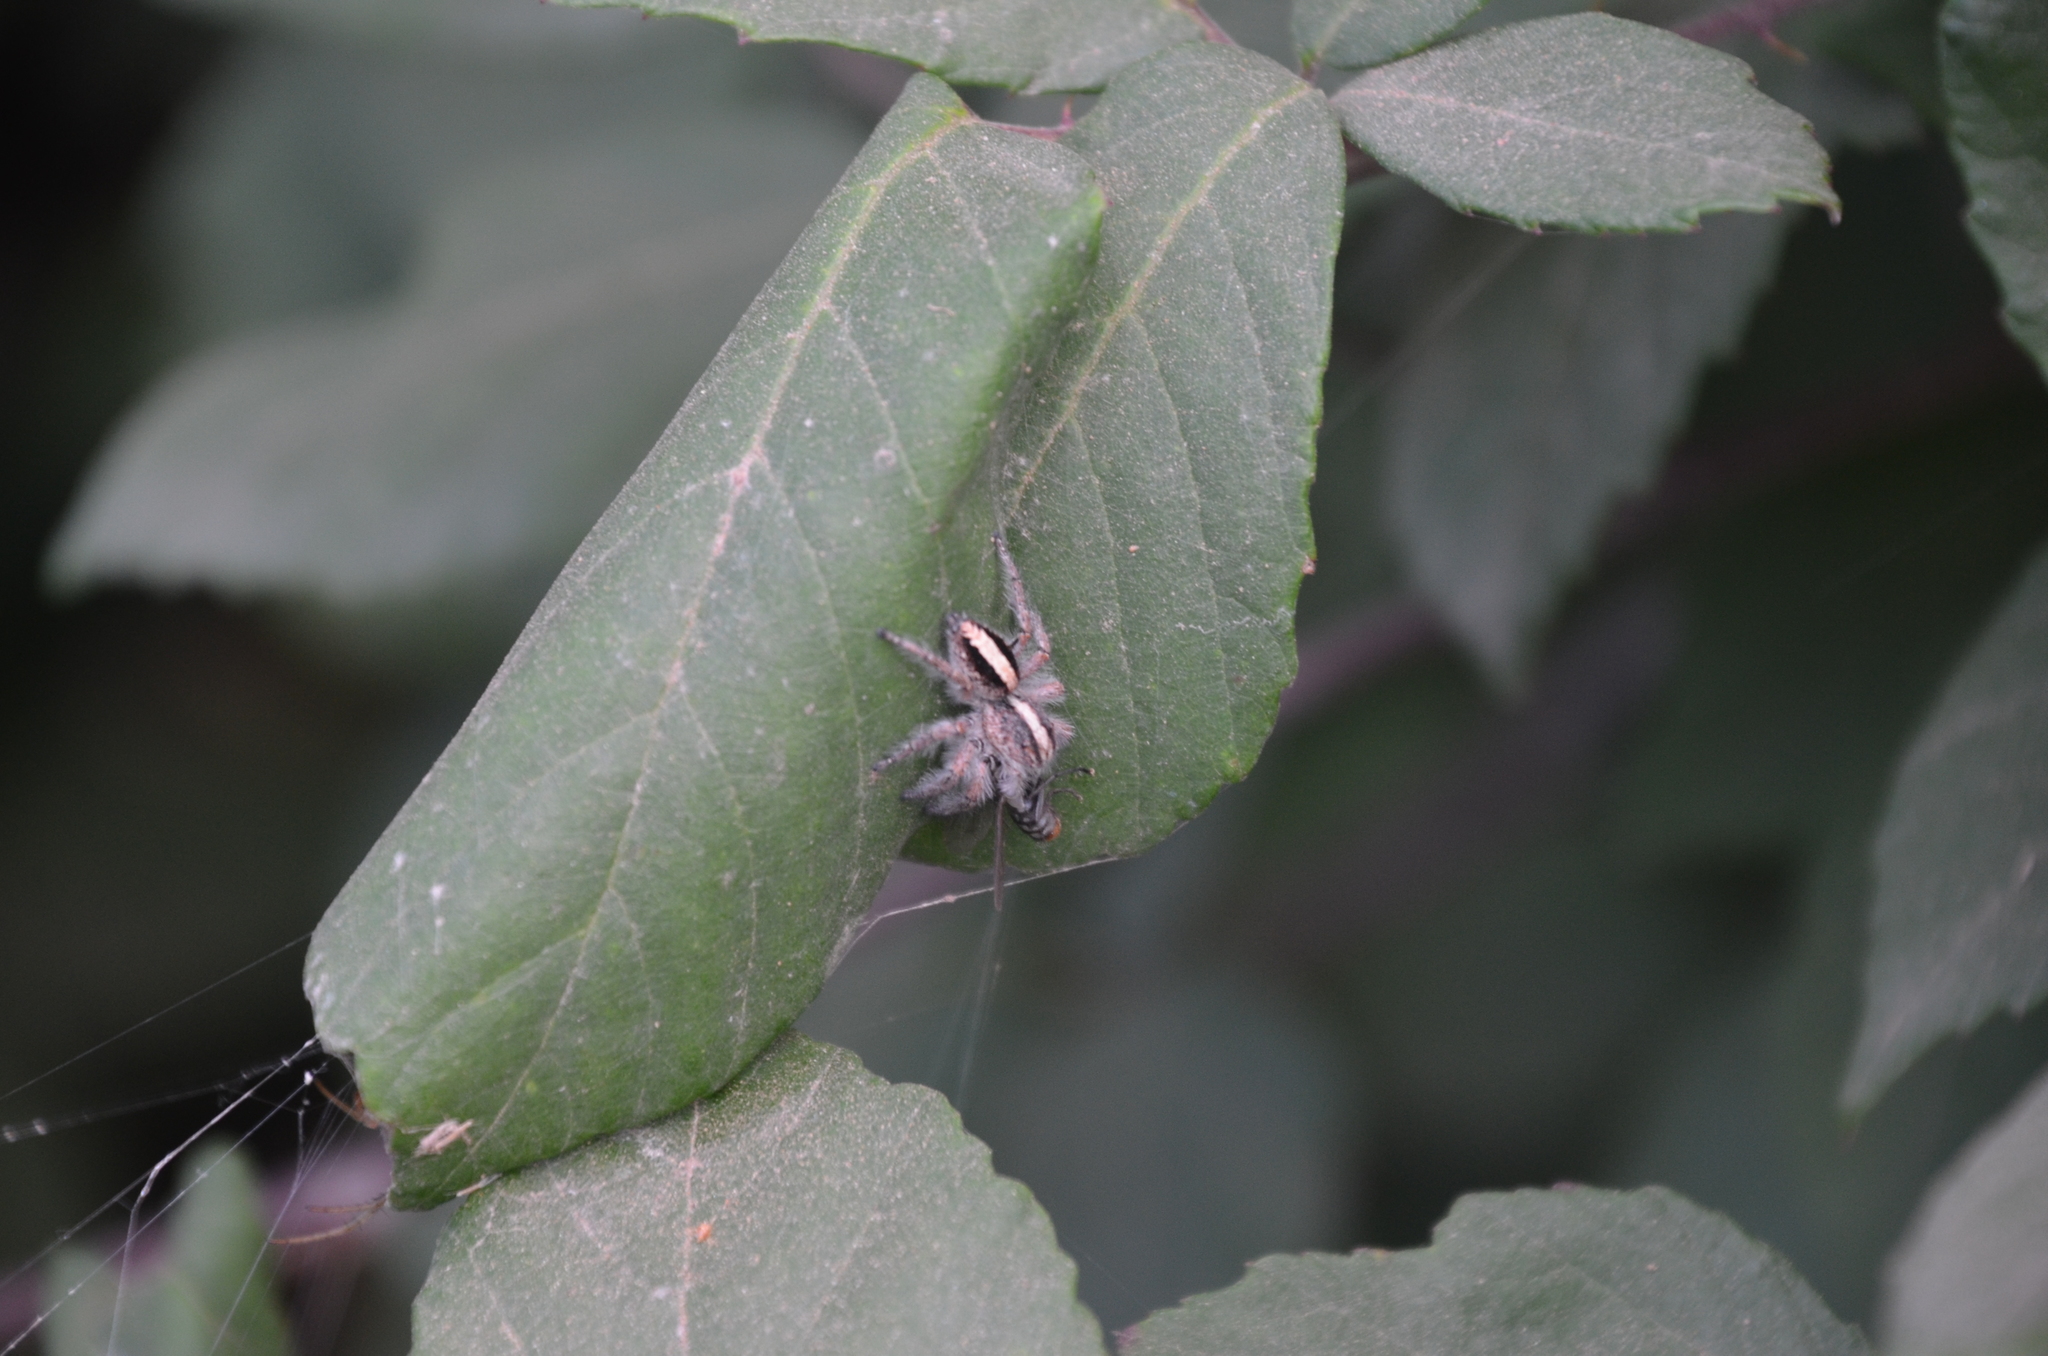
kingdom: Animalia
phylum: Arthropoda
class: Arachnida
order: Araneae
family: Salticidae
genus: Megafreya
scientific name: Megafreya sutrix
